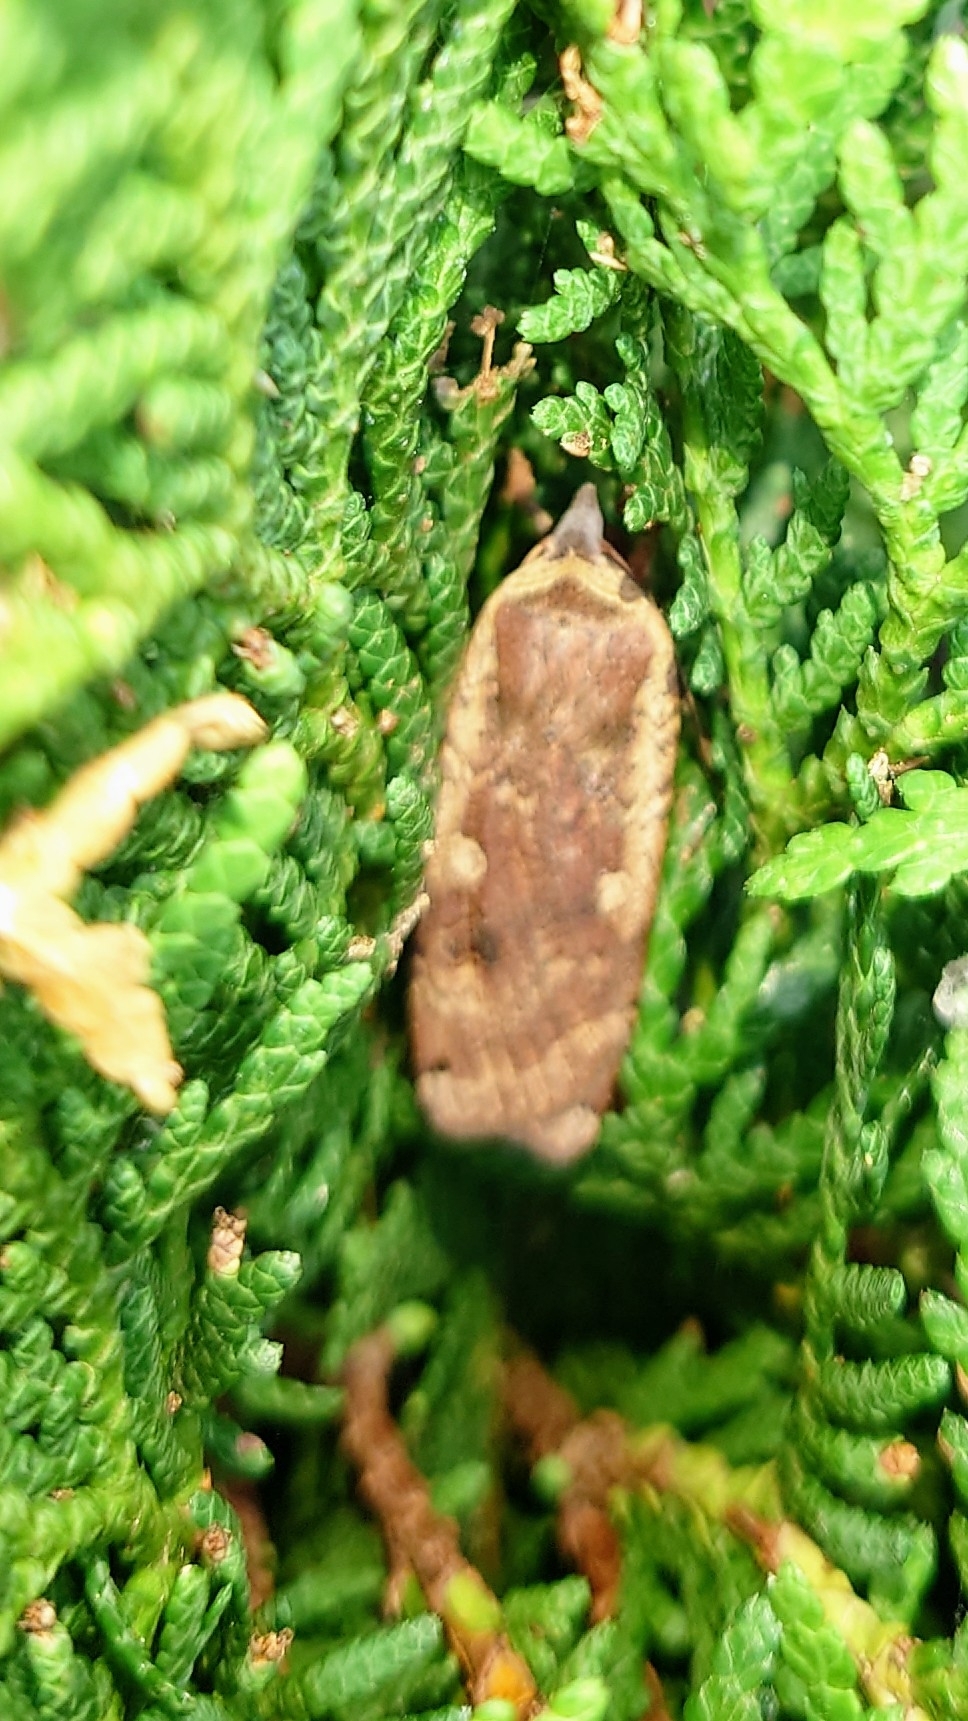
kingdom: Animalia
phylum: Arthropoda
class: Insecta
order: Lepidoptera
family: Noctuidae
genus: Noctua
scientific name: Noctua pronuba
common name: Large yellow underwing
